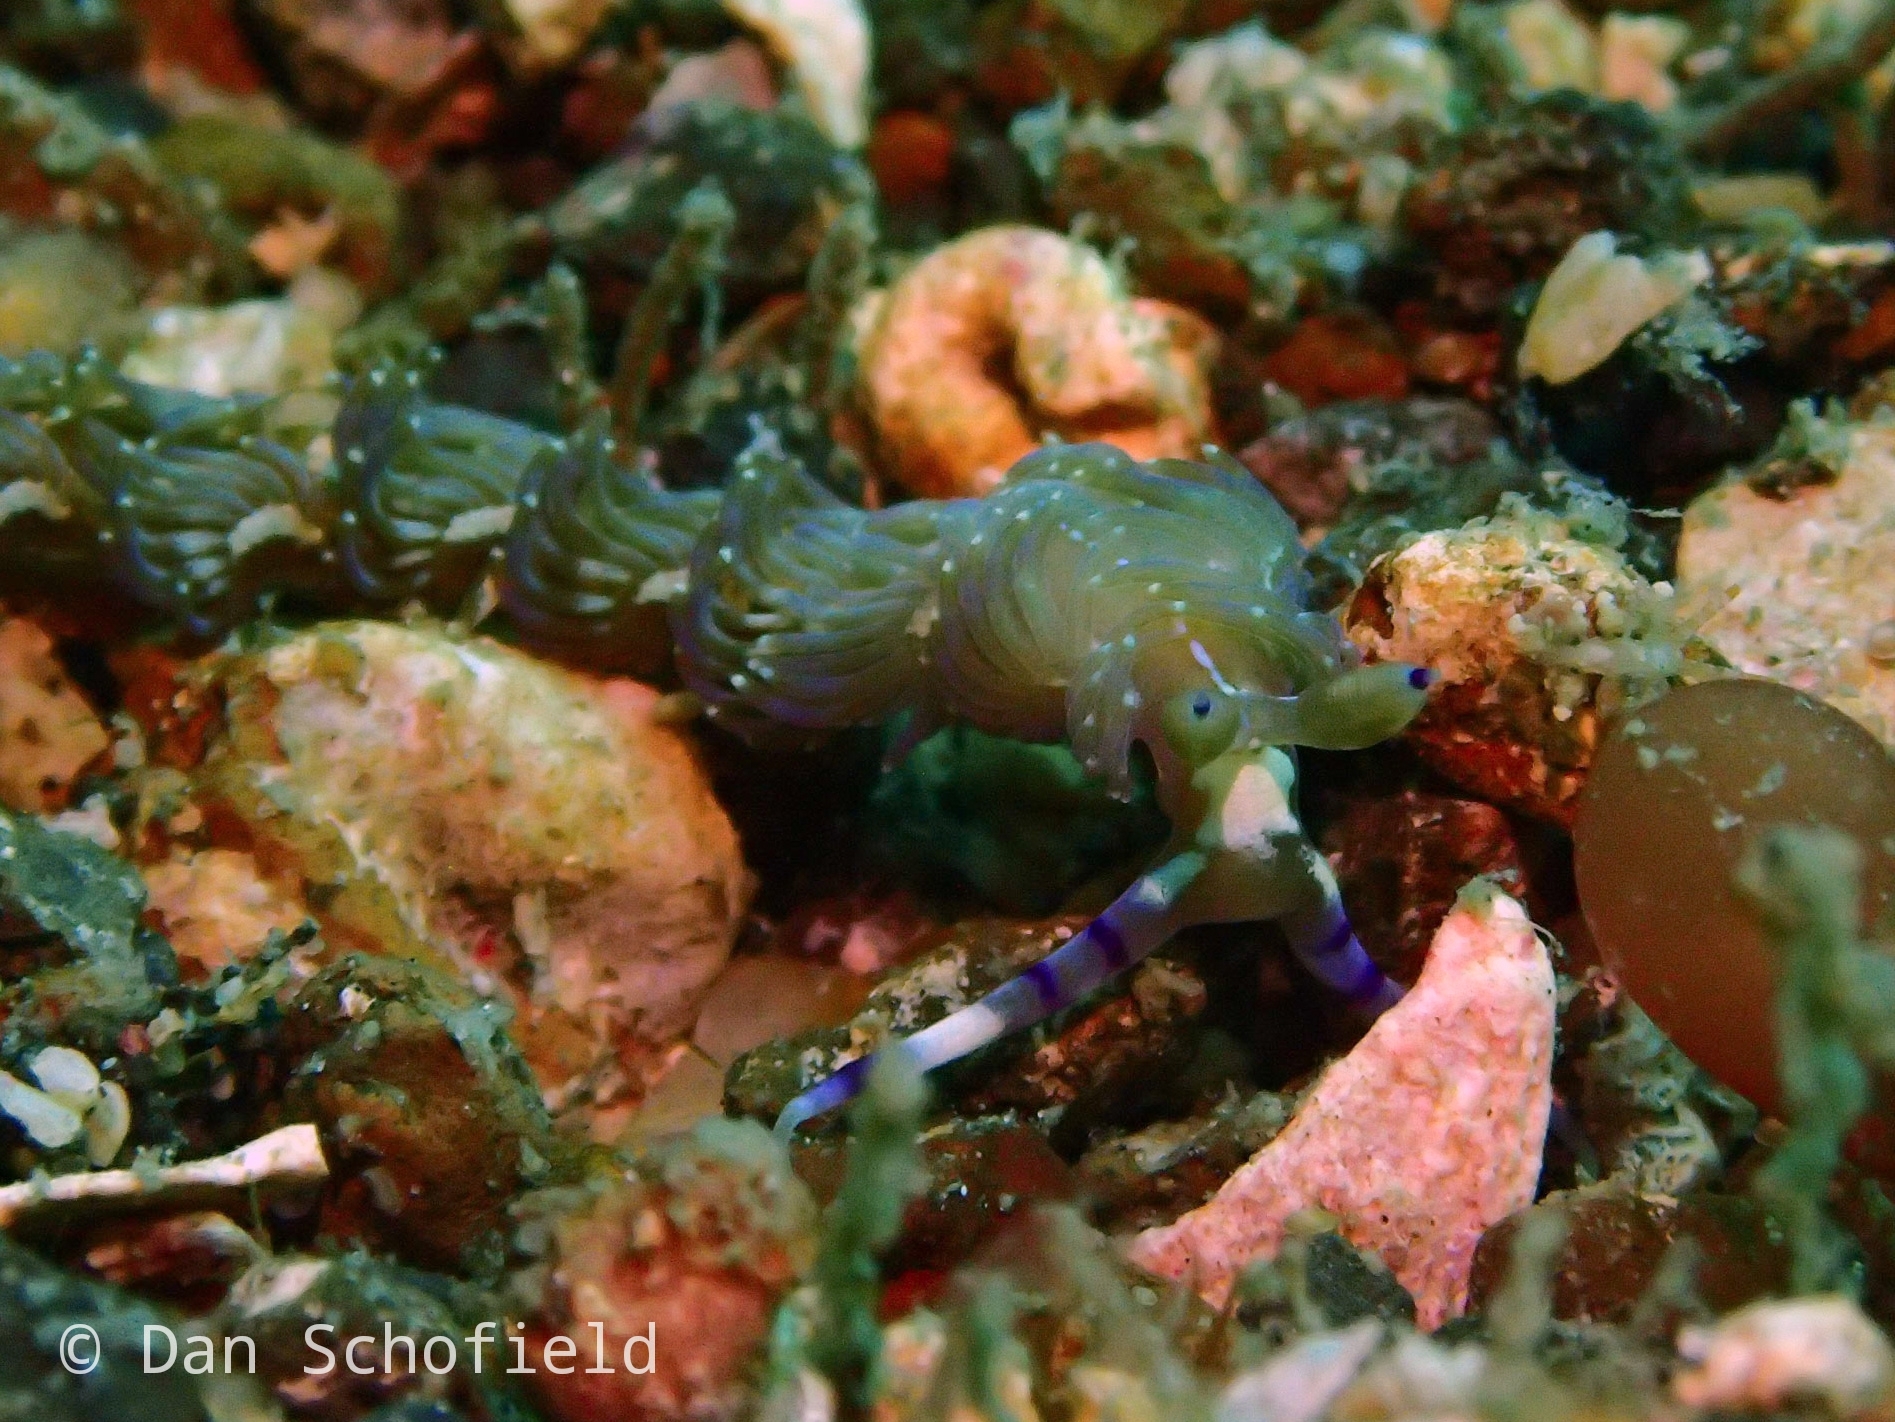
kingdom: Animalia
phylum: Mollusca
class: Gastropoda
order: Nudibranchia
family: Facelinidae
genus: Pteraeolidia
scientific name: Pteraeolidia semperi
